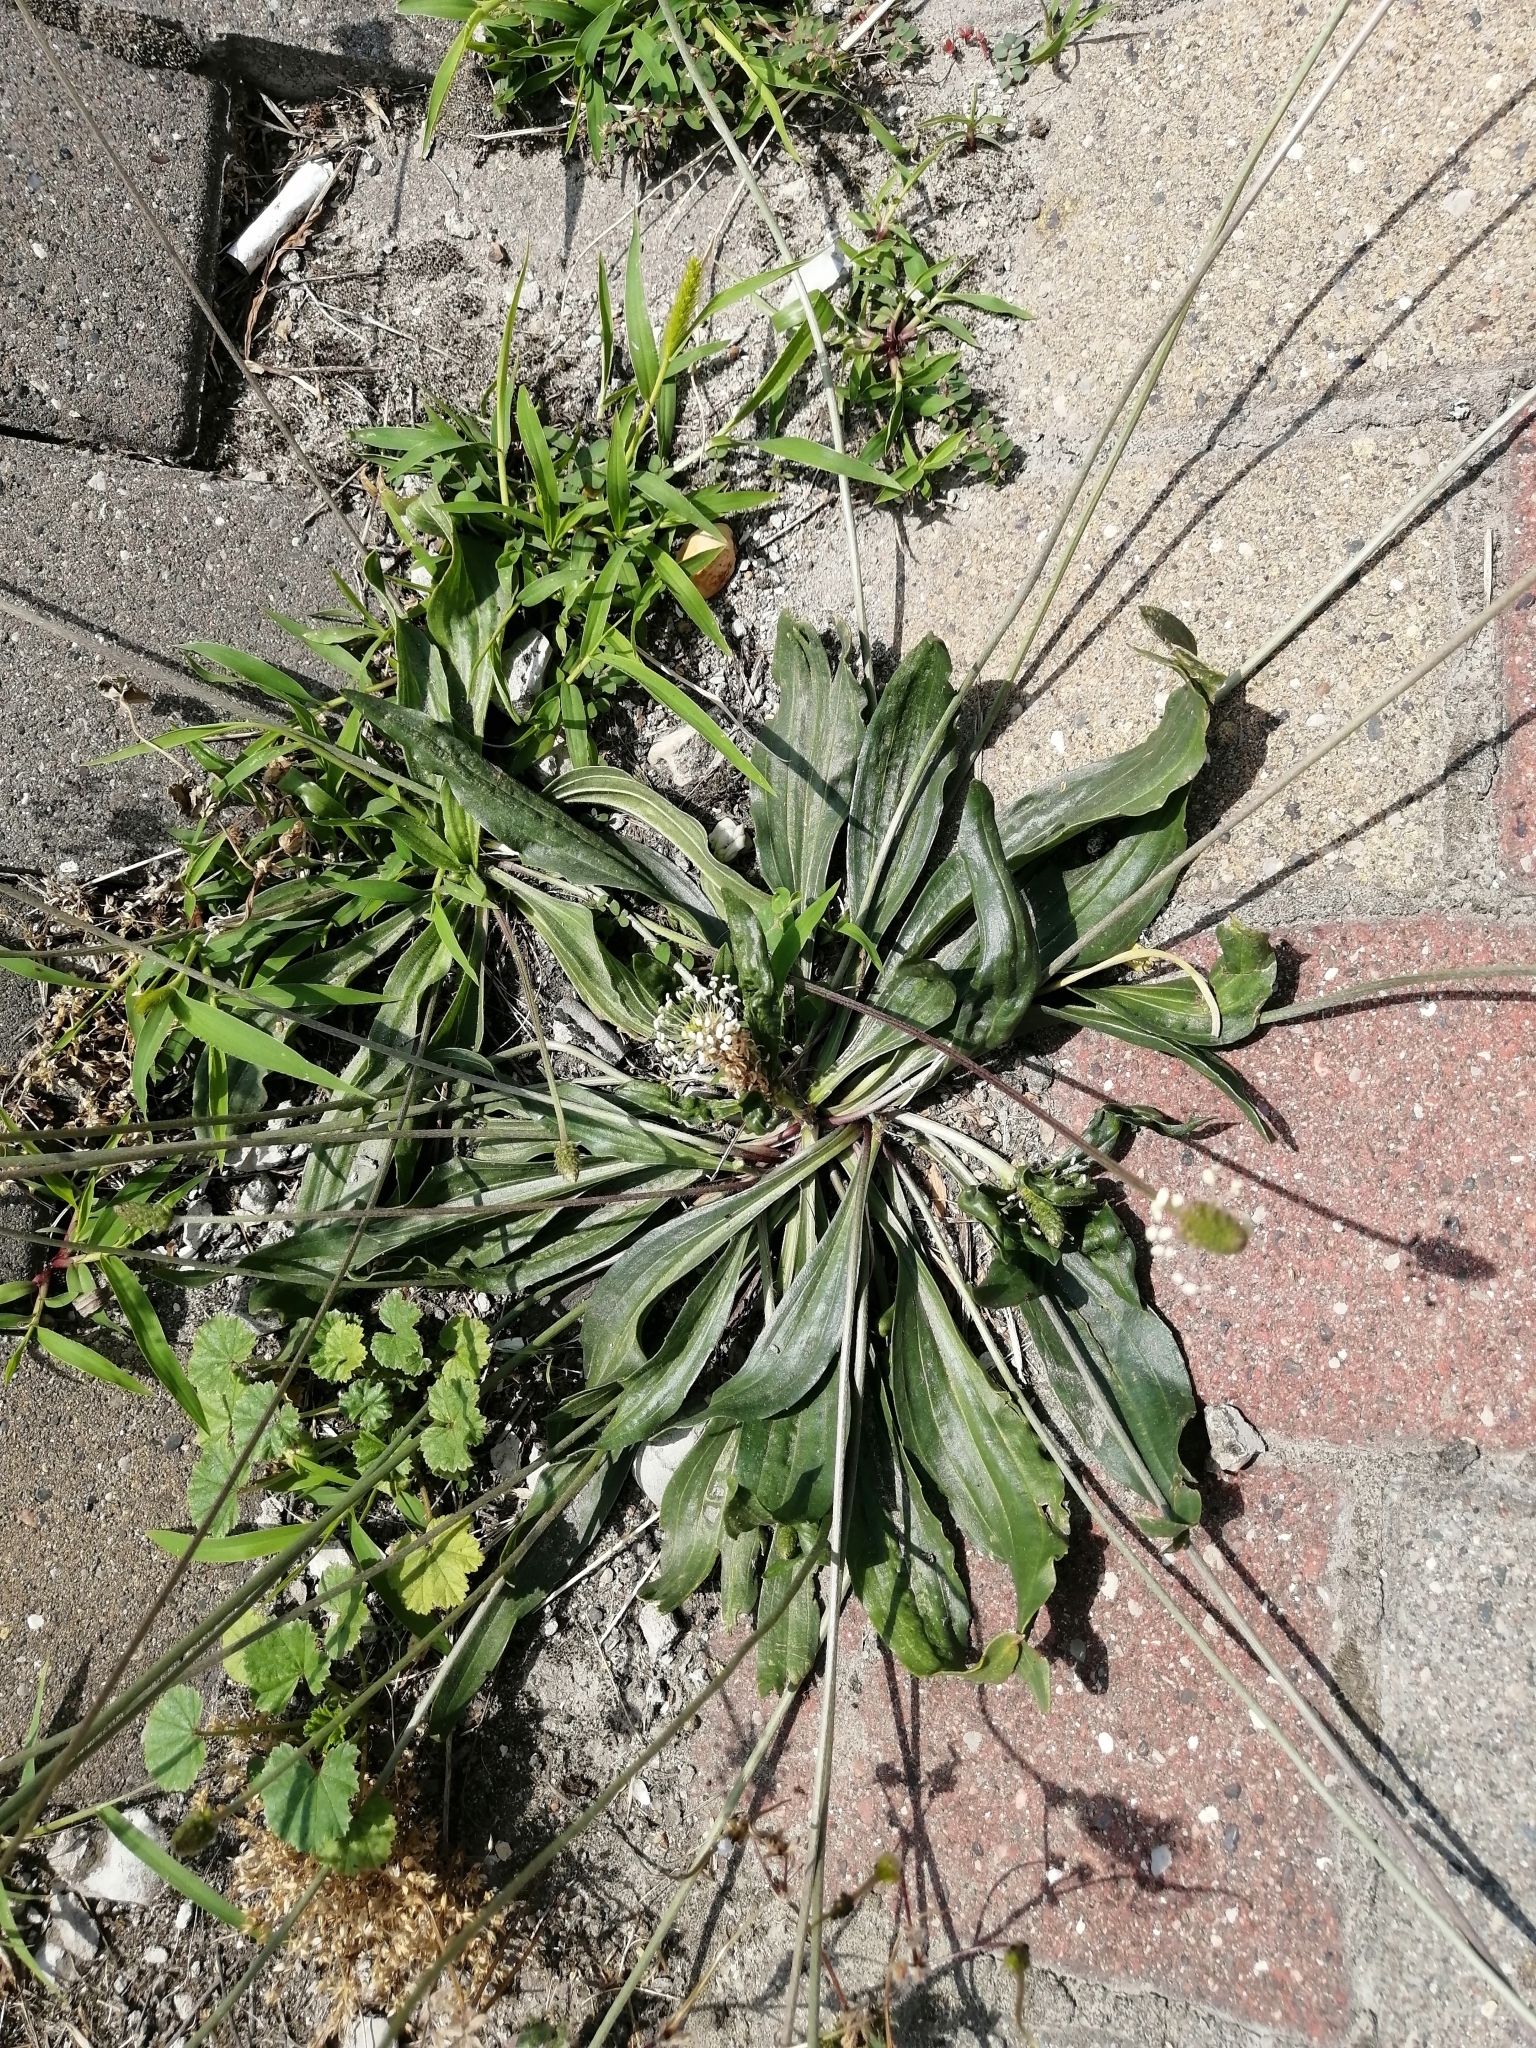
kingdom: Plantae
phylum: Tracheophyta
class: Magnoliopsida
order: Lamiales
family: Plantaginaceae
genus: Plantago
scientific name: Plantago lanceolata
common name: Ribwort plantain
